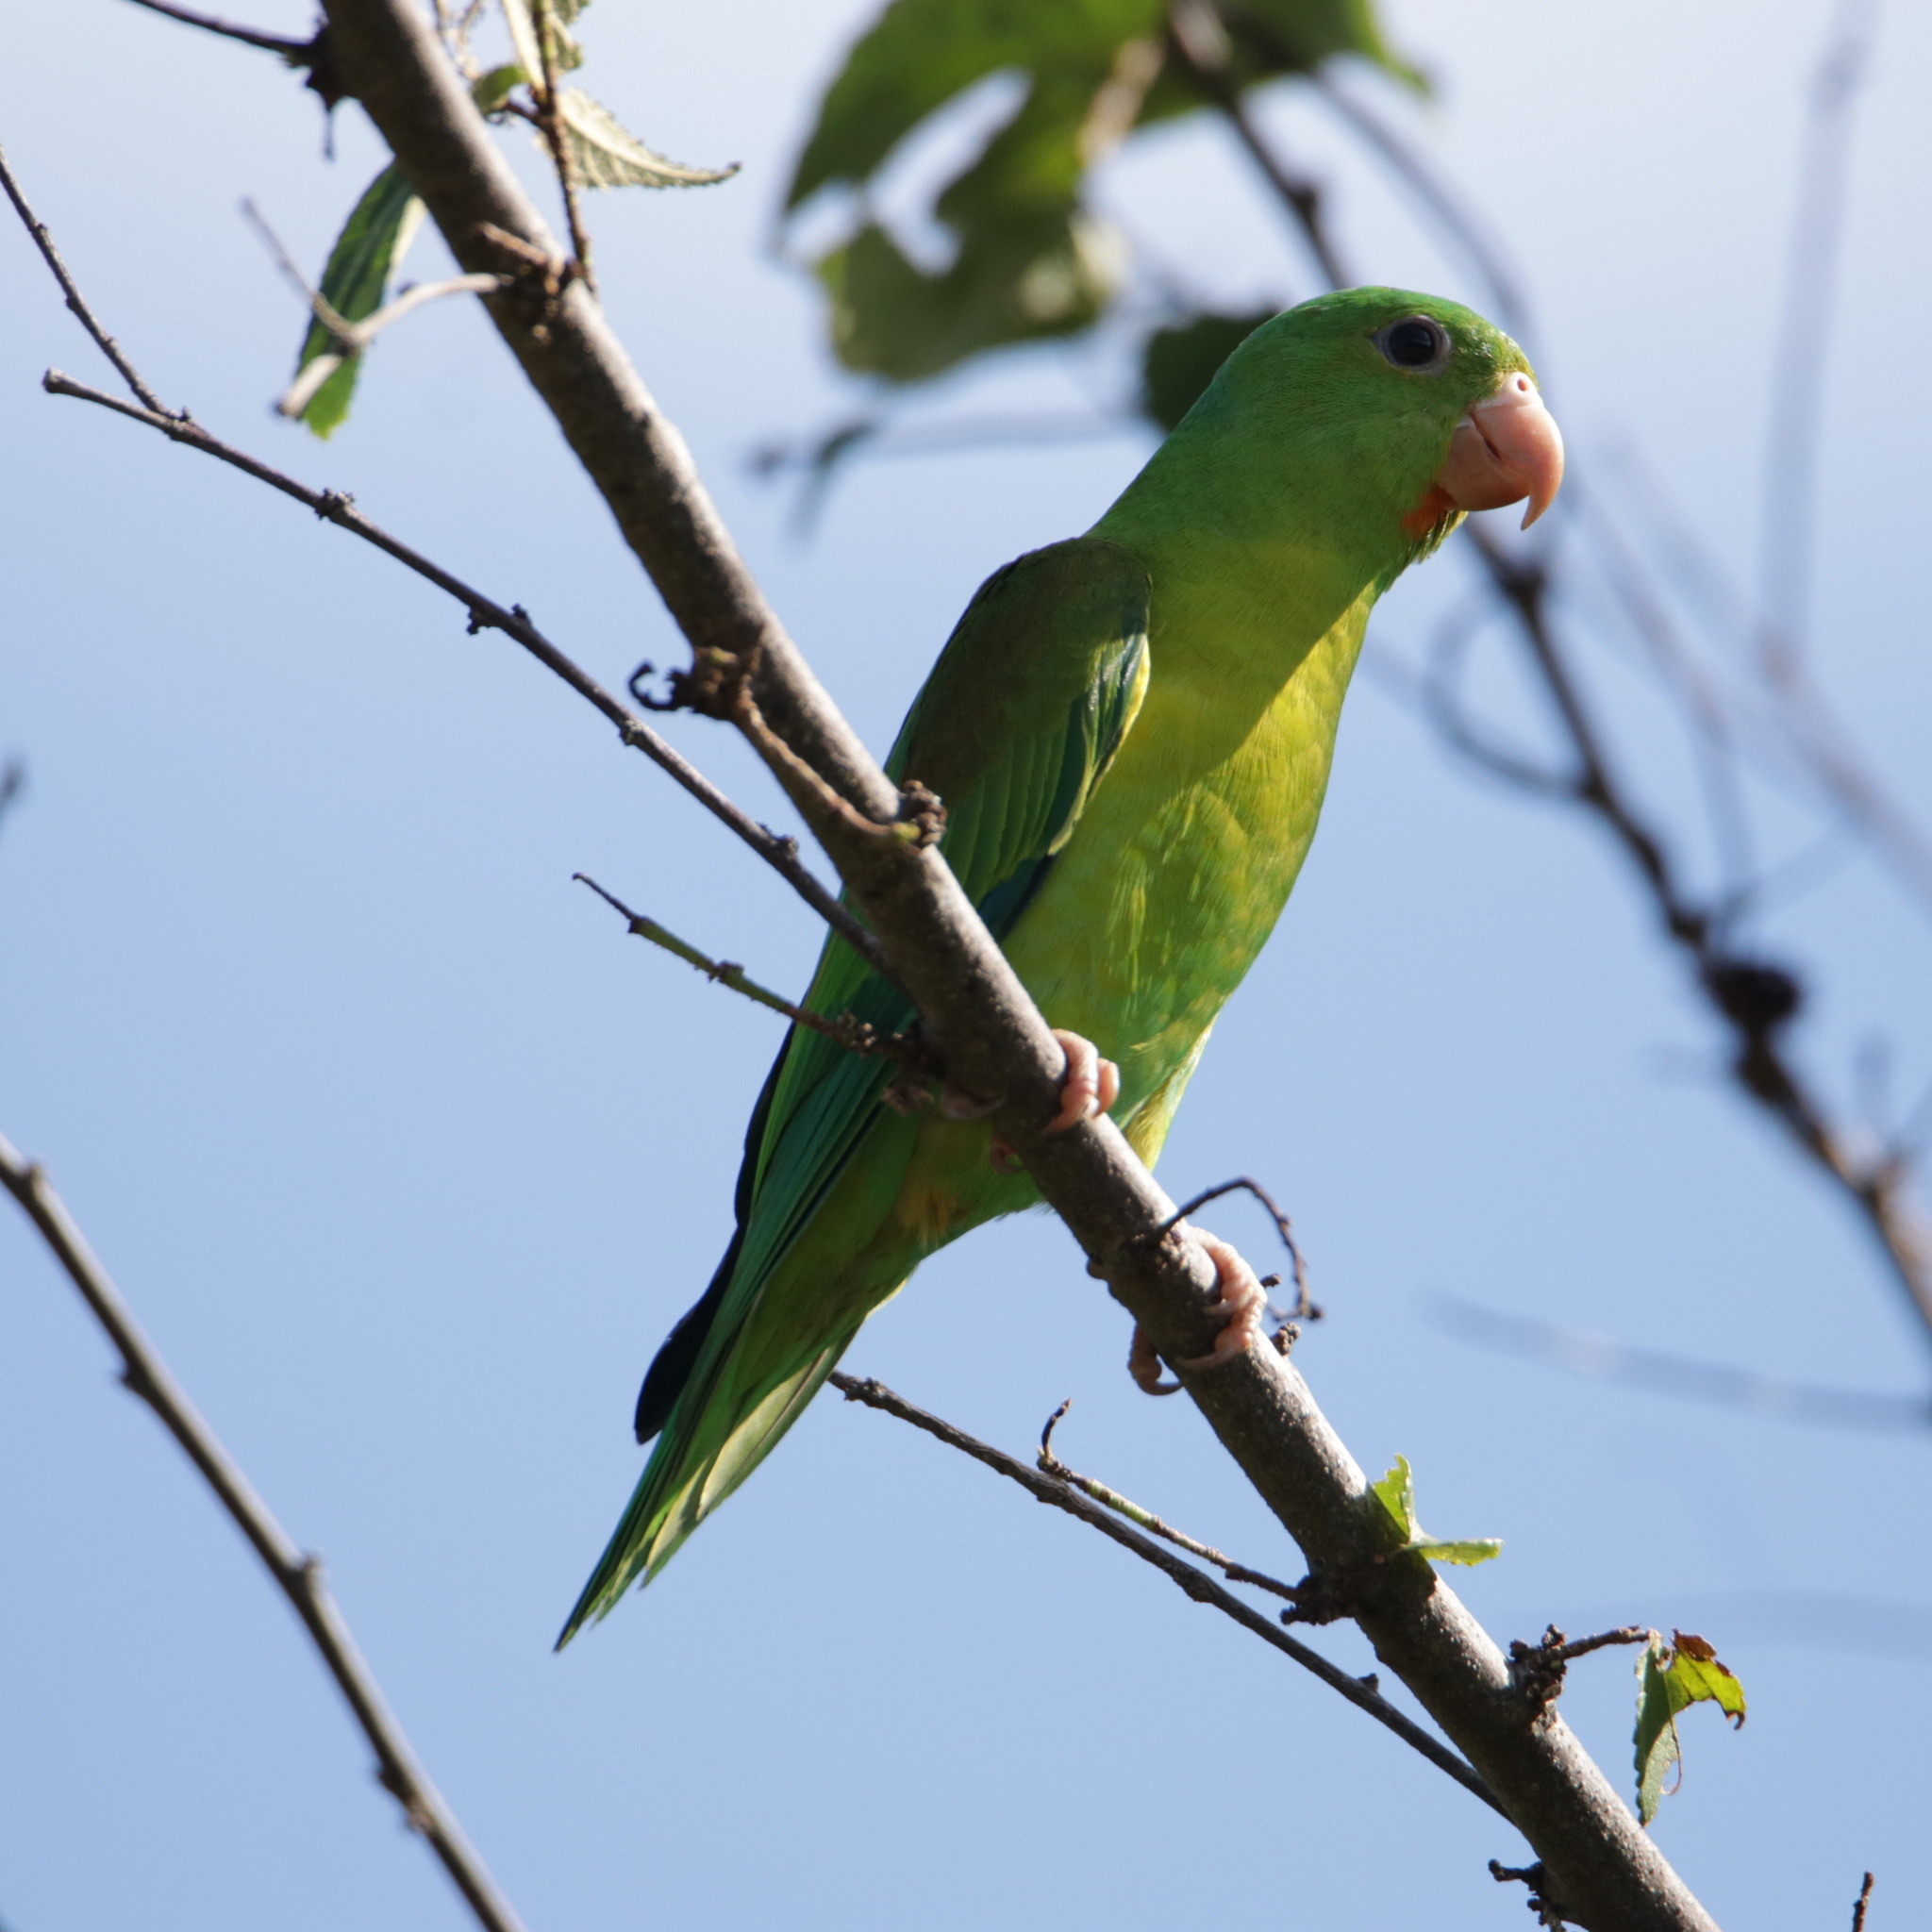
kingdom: Animalia
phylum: Chordata
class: Aves
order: Psittaciformes
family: Psittacidae
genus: Brotogeris
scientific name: Brotogeris jugularis
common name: Orange-chinned parakeet
